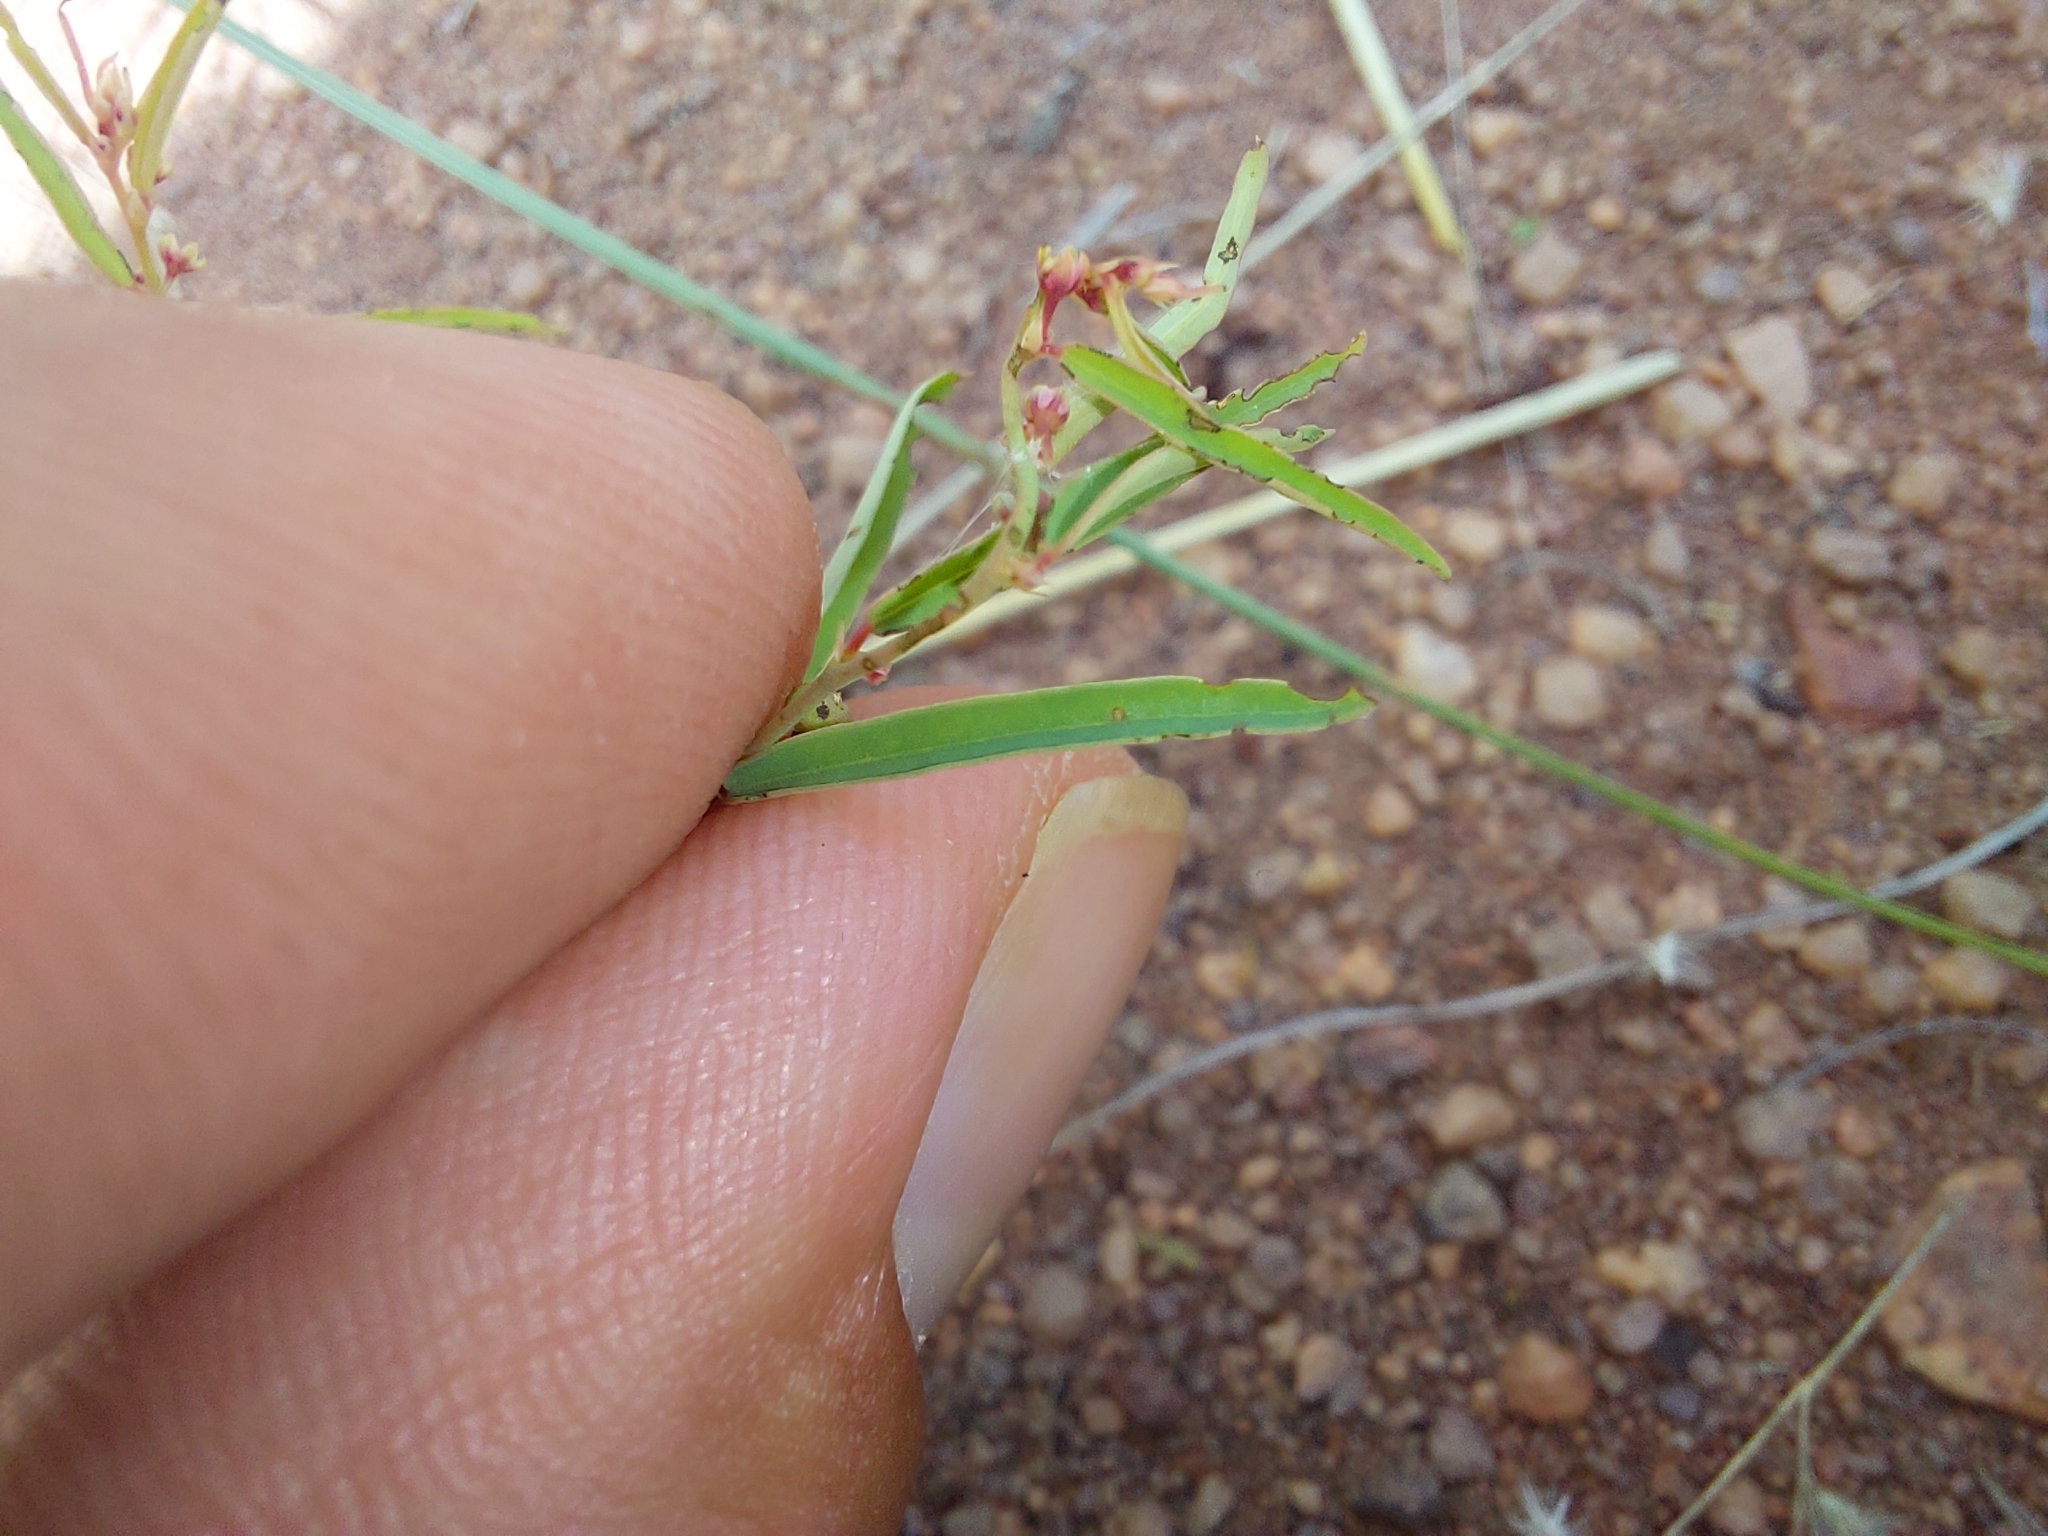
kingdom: Plantae
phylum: Tracheophyta
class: Magnoliopsida
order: Malpighiales
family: Phyllanthaceae
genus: Phyllanthus
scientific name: Phyllanthus maderaspatensis
